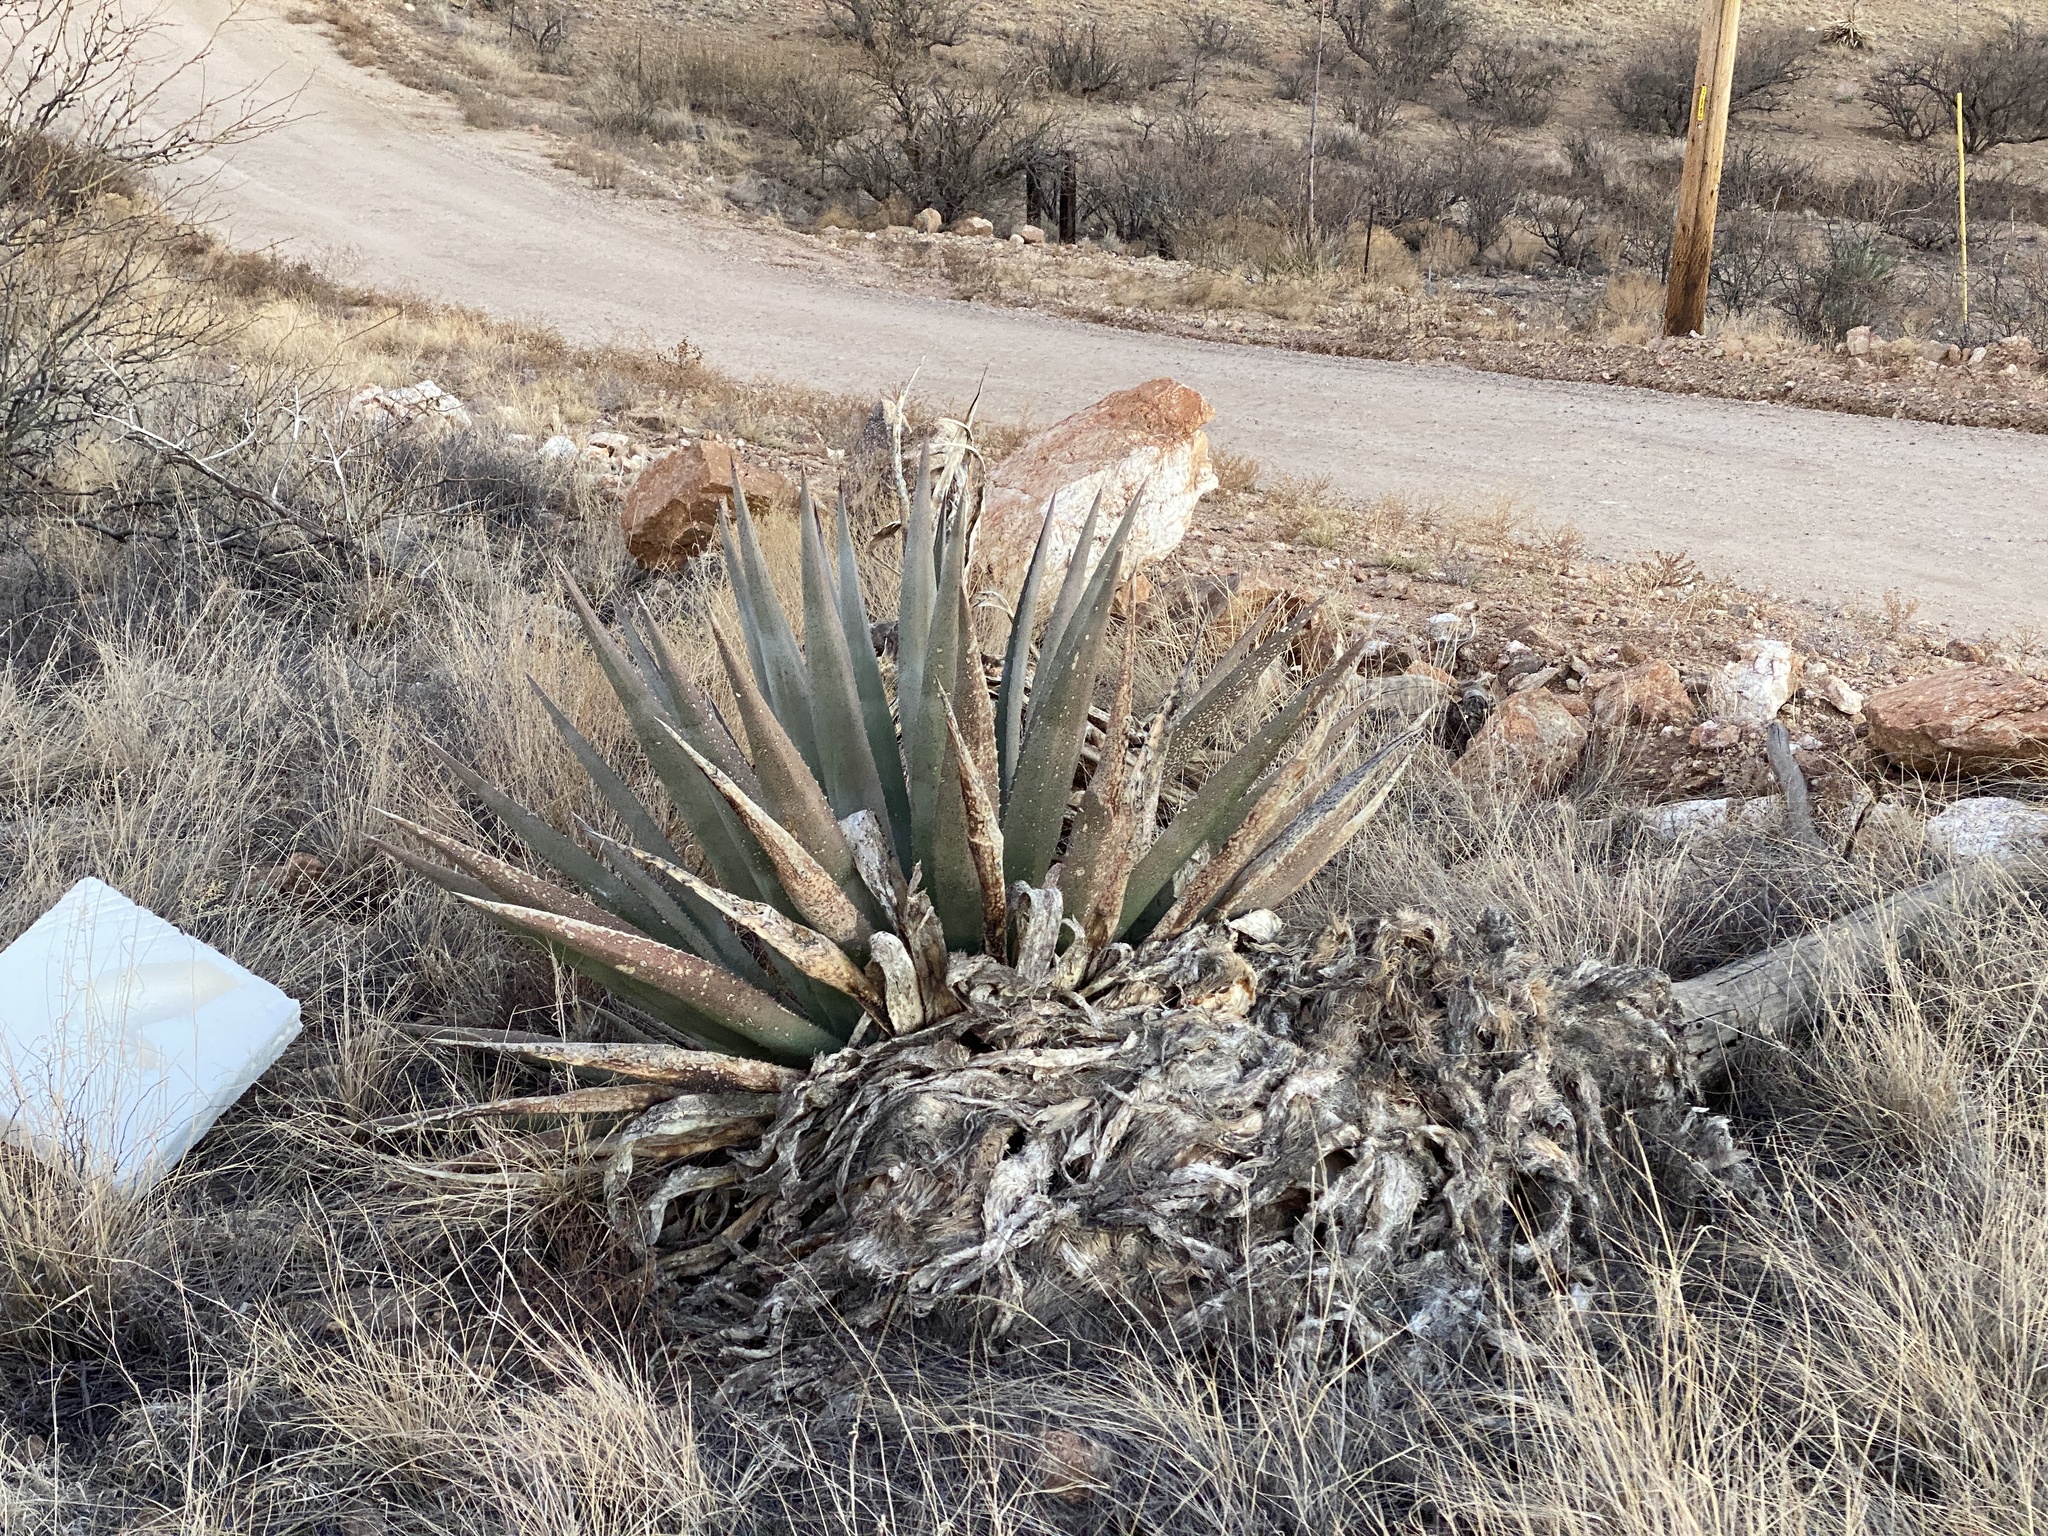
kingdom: Plantae
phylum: Tracheophyta
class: Liliopsida
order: Asparagales
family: Asparagaceae
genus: Agave
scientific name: Agave palmeri
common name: Palmer agave
